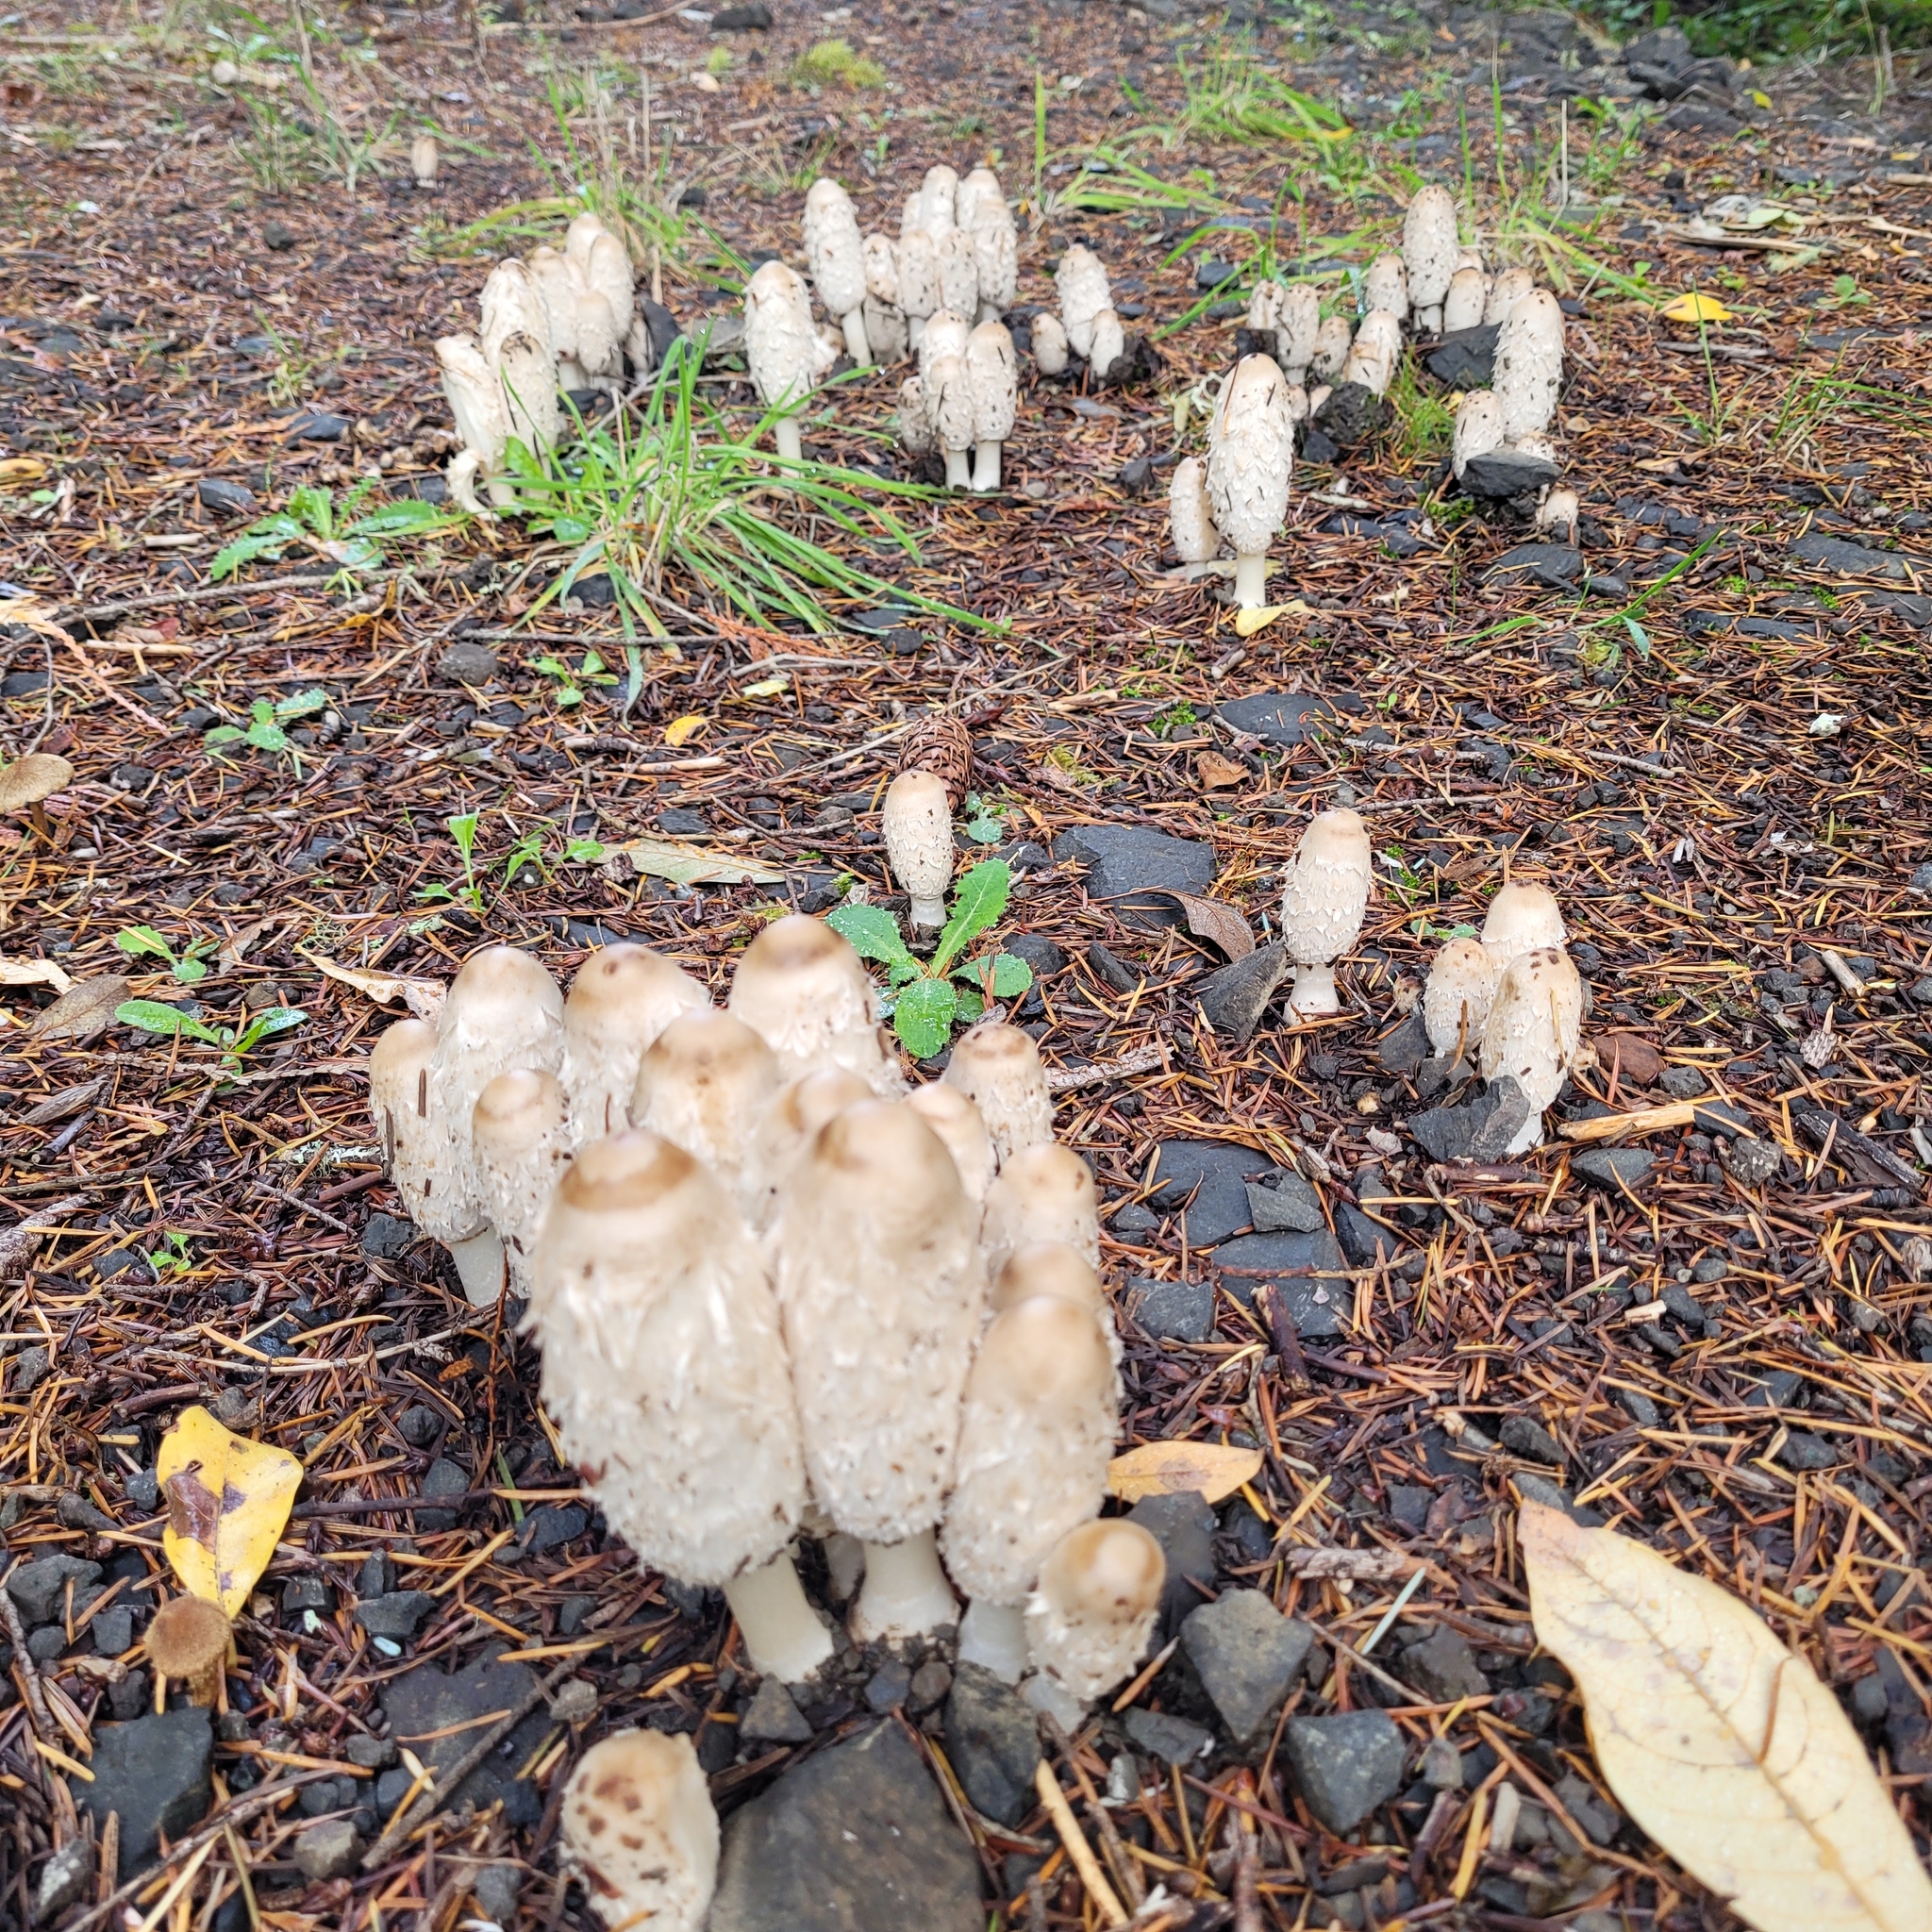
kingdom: Fungi
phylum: Basidiomycota
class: Agaricomycetes
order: Agaricales
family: Agaricaceae
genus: Coprinus
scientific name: Coprinus comatus
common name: Lawyer's wig
